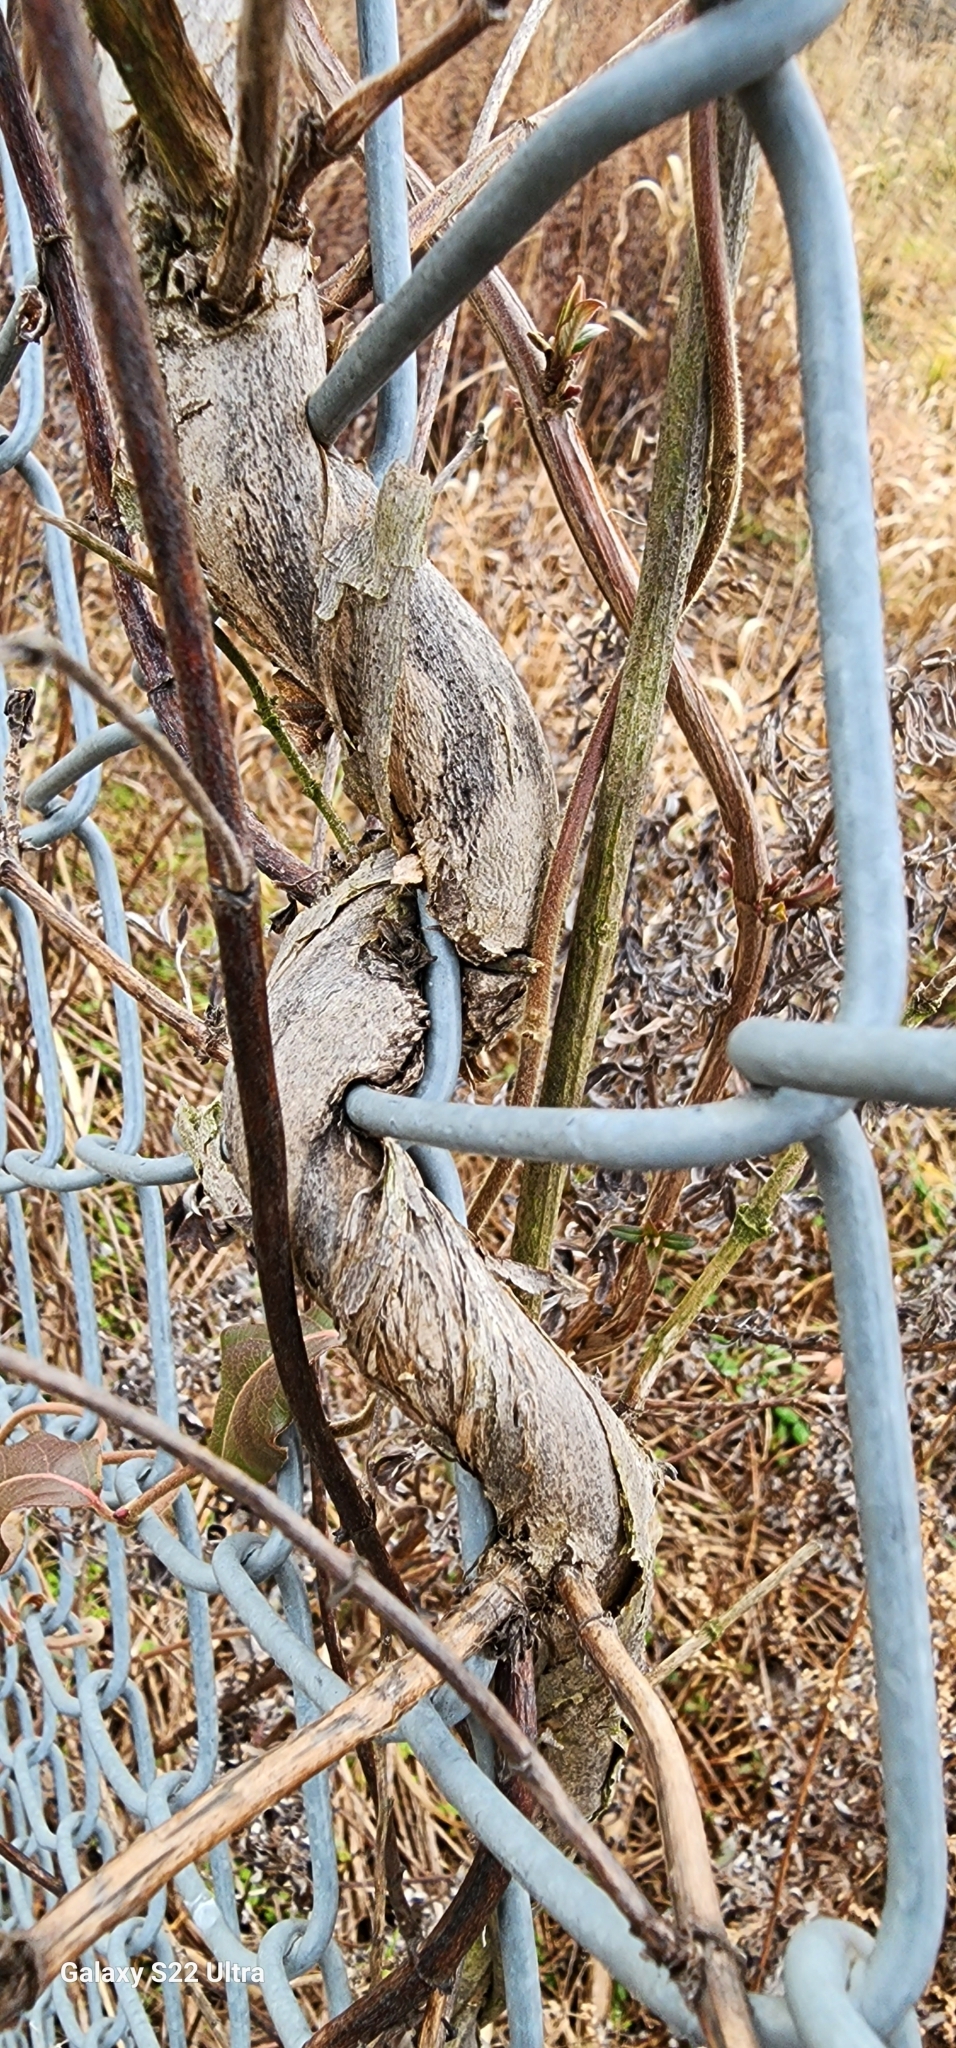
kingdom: Plantae
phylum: Tracheophyta
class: Magnoliopsida
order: Dipsacales
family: Caprifoliaceae
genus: Lonicera
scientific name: Lonicera japonica
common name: Japanese honeysuckle
